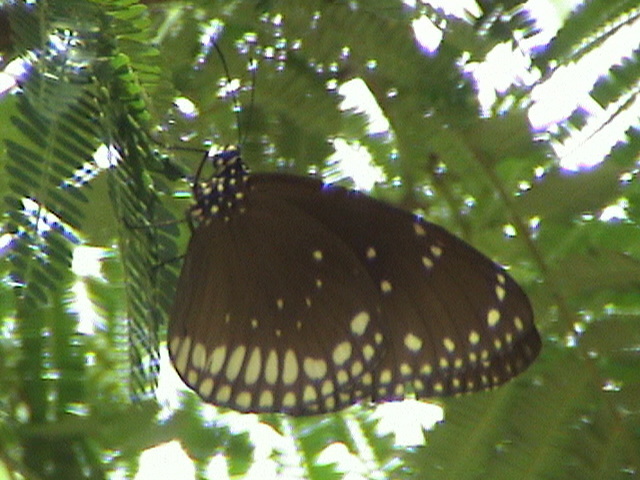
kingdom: Animalia
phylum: Arthropoda
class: Insecta
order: Lepidoptera
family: Nymphalidae
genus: Euploea
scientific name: Euploea sylvester
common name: Double-branded crow butterfly
